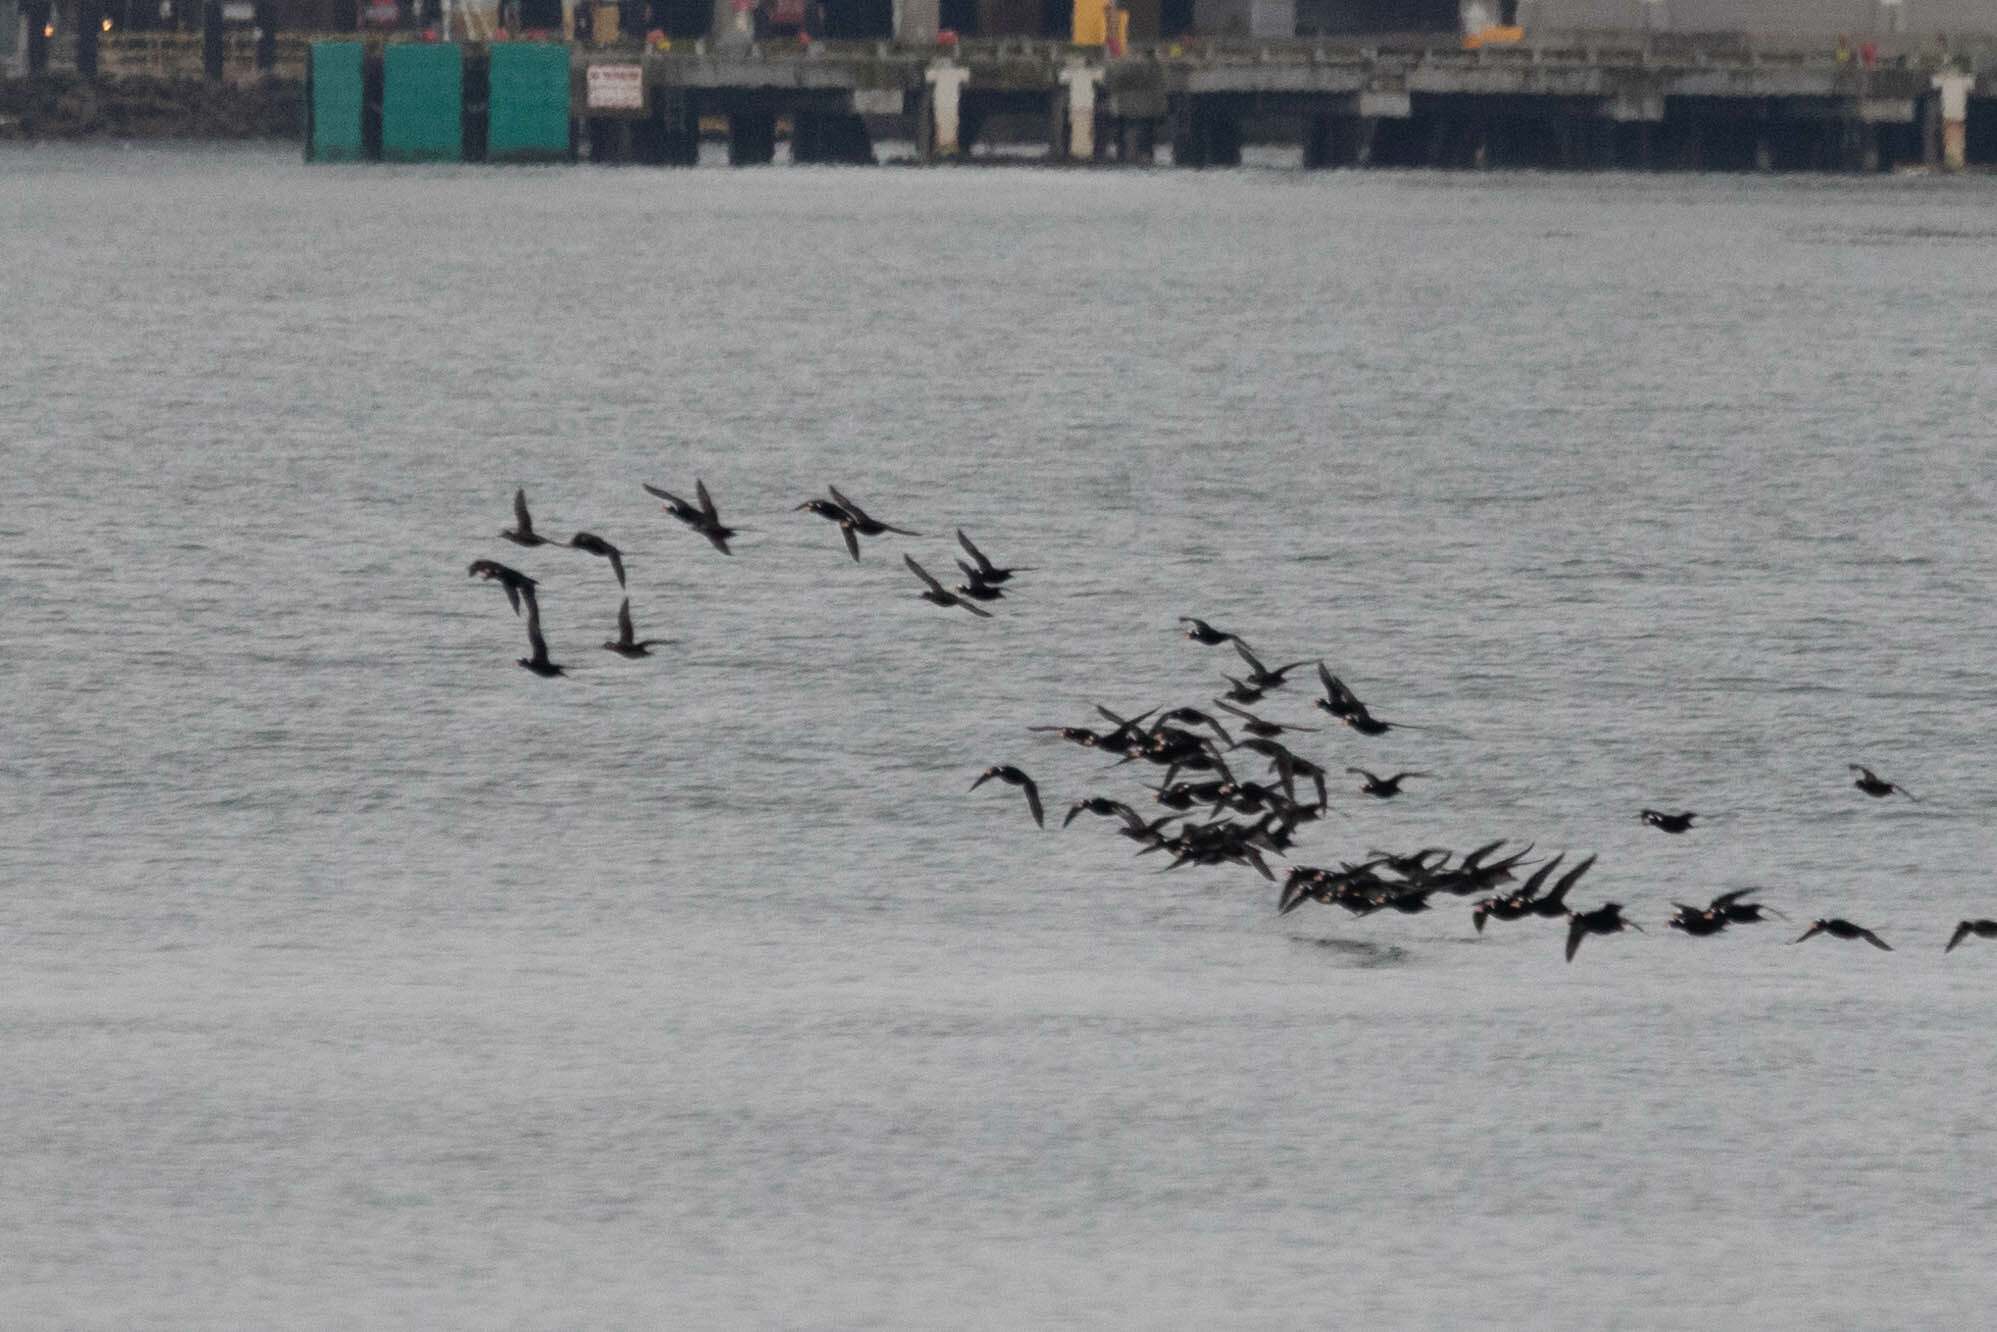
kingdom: Animalia
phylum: Chordata
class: Aves
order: Anseriformes
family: Anatidae
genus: Melanitta
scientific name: Melanitta perspicillata
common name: Surf scoter
